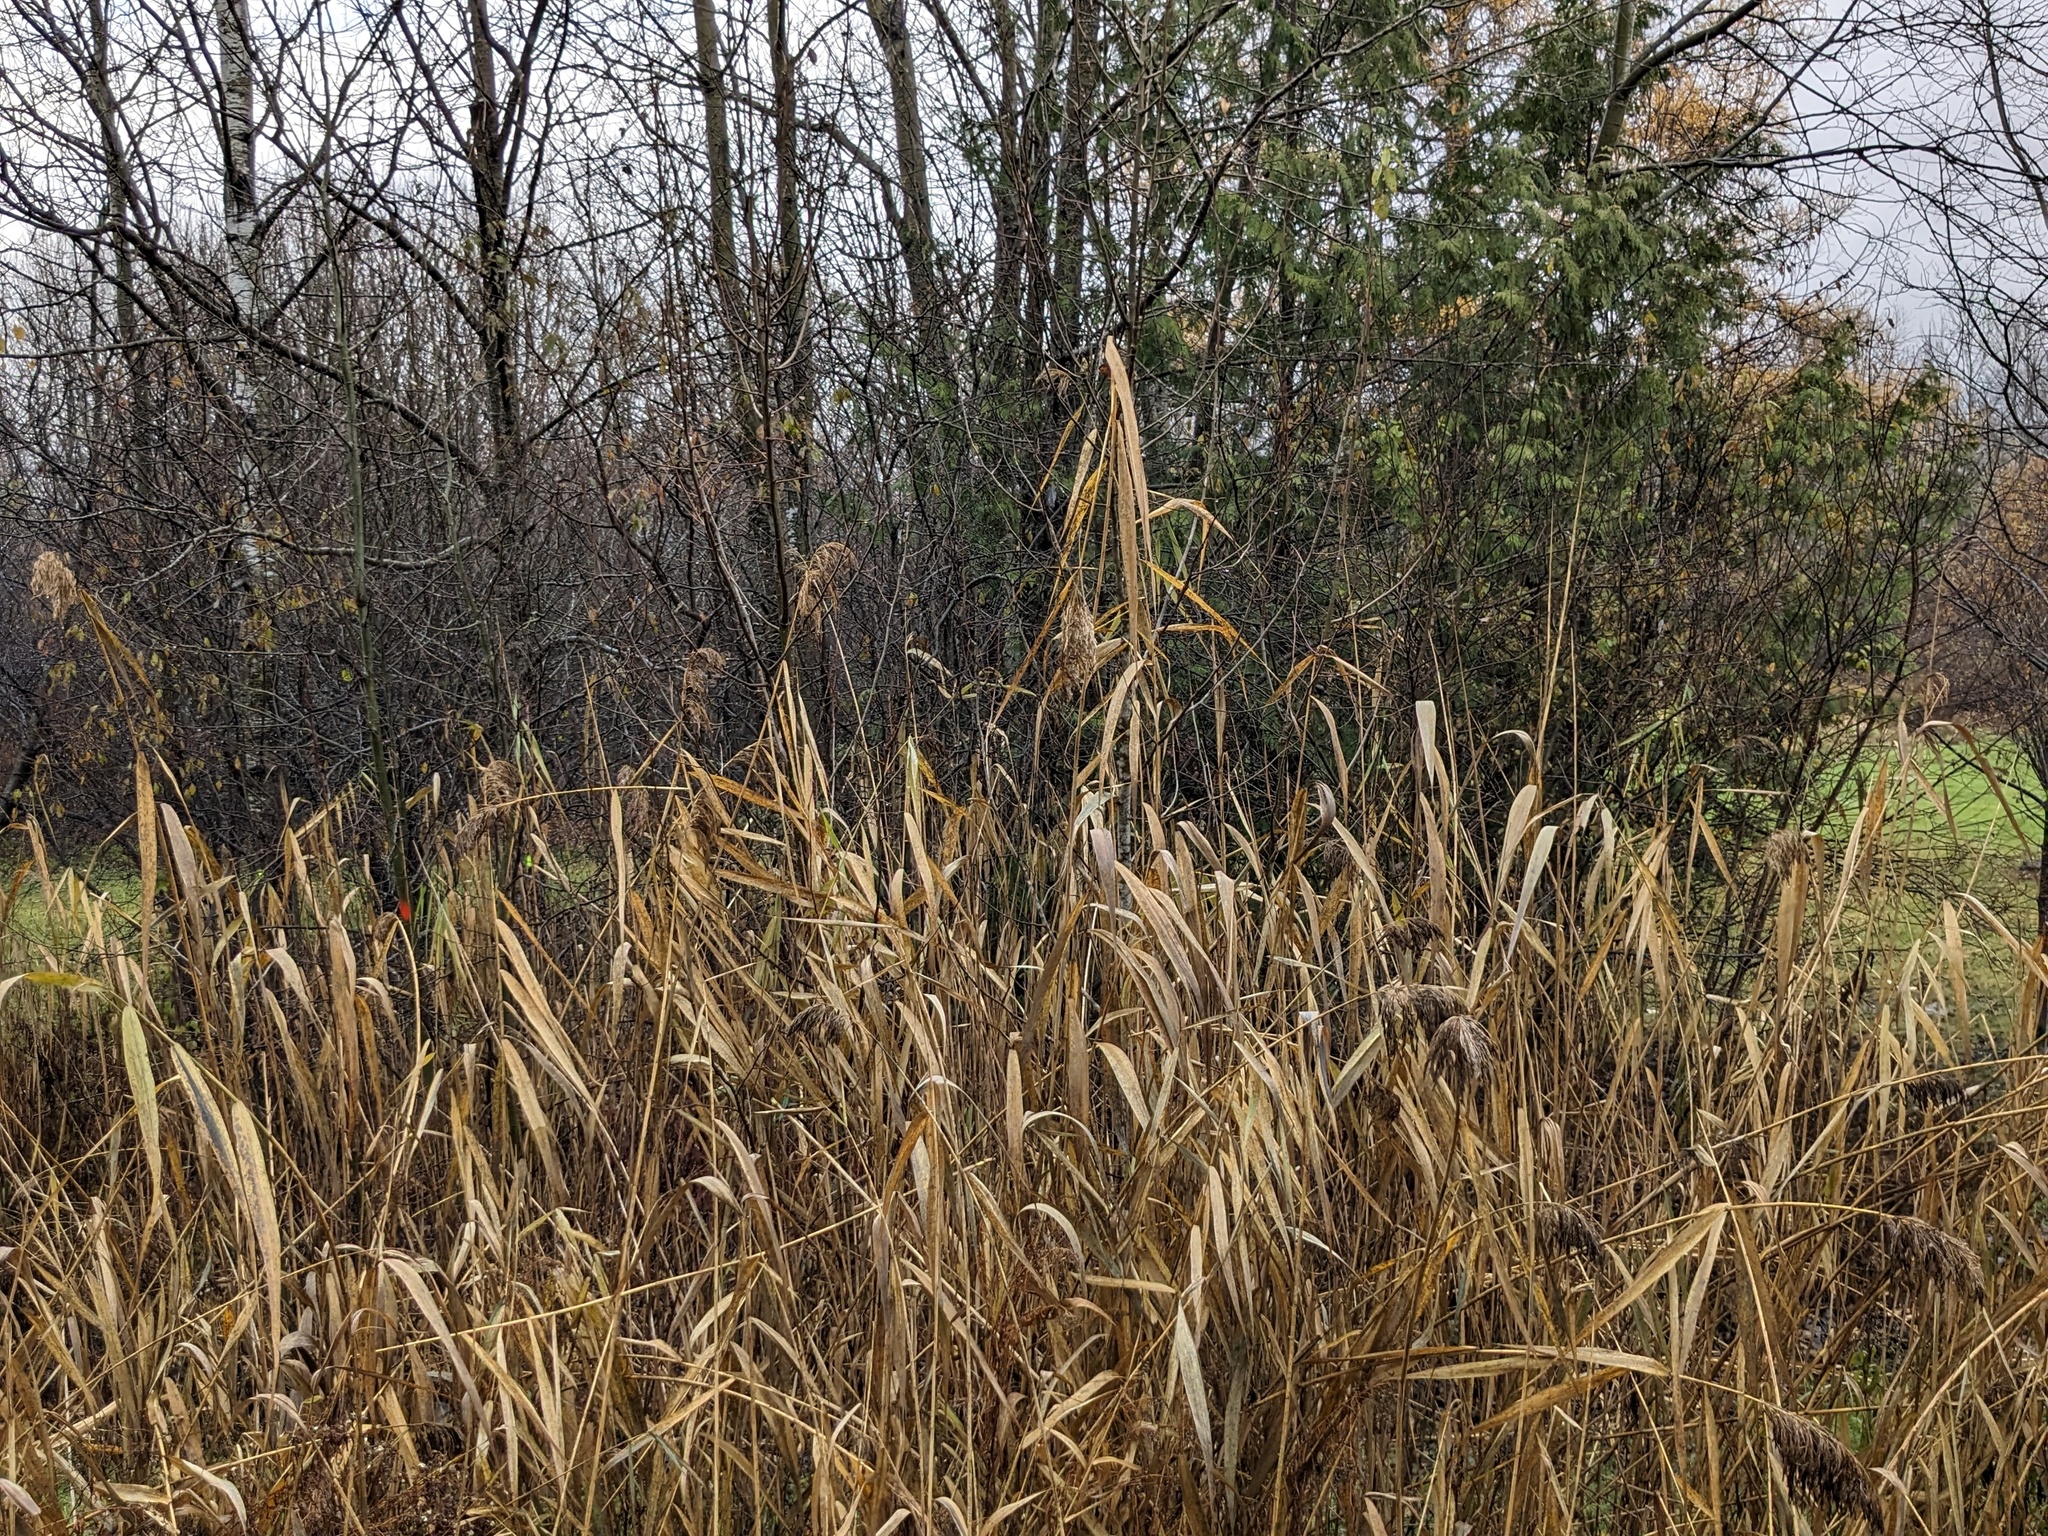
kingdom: Plantae
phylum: Tracheophyta
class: Liliopsida
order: Poales
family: Poaceae
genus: Phragmites
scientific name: Phragmites australis
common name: Common reed
